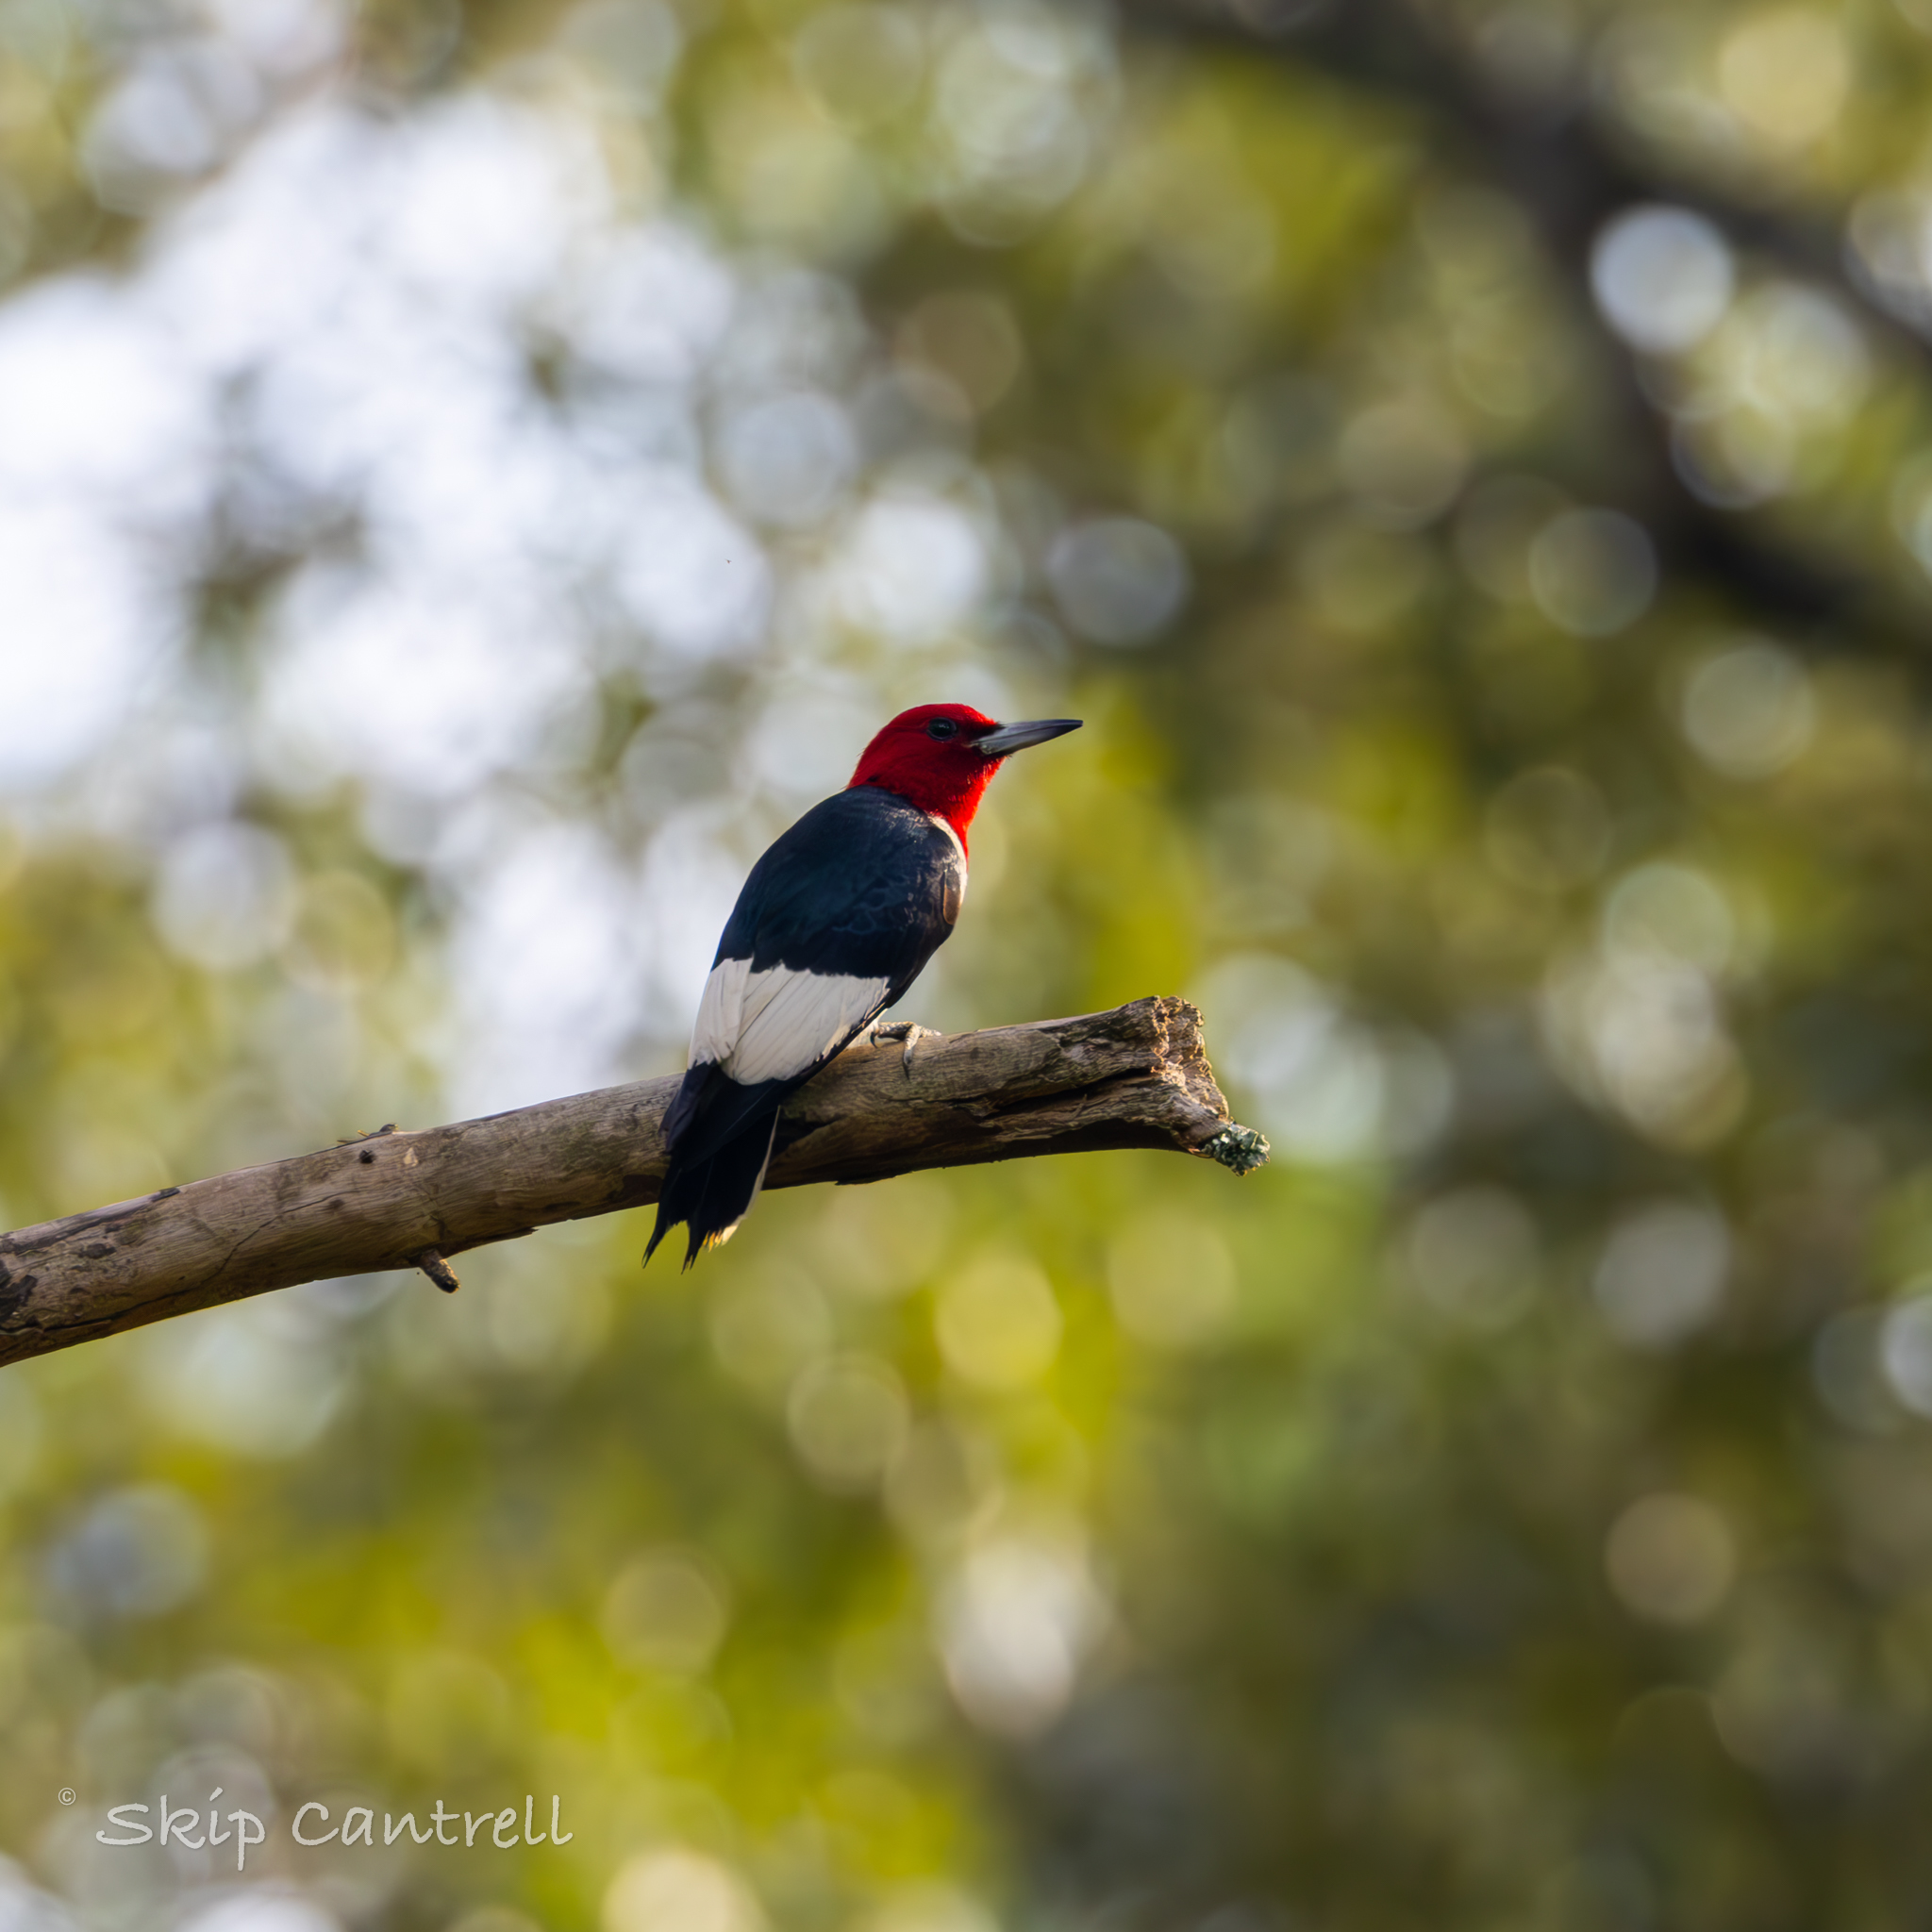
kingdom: Animalia
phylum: Chordata
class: Aves
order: Piciformes
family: Picidae
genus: Melanerpes
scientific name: Melanerpes erythrocephalus
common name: Red-headed woodpecker
